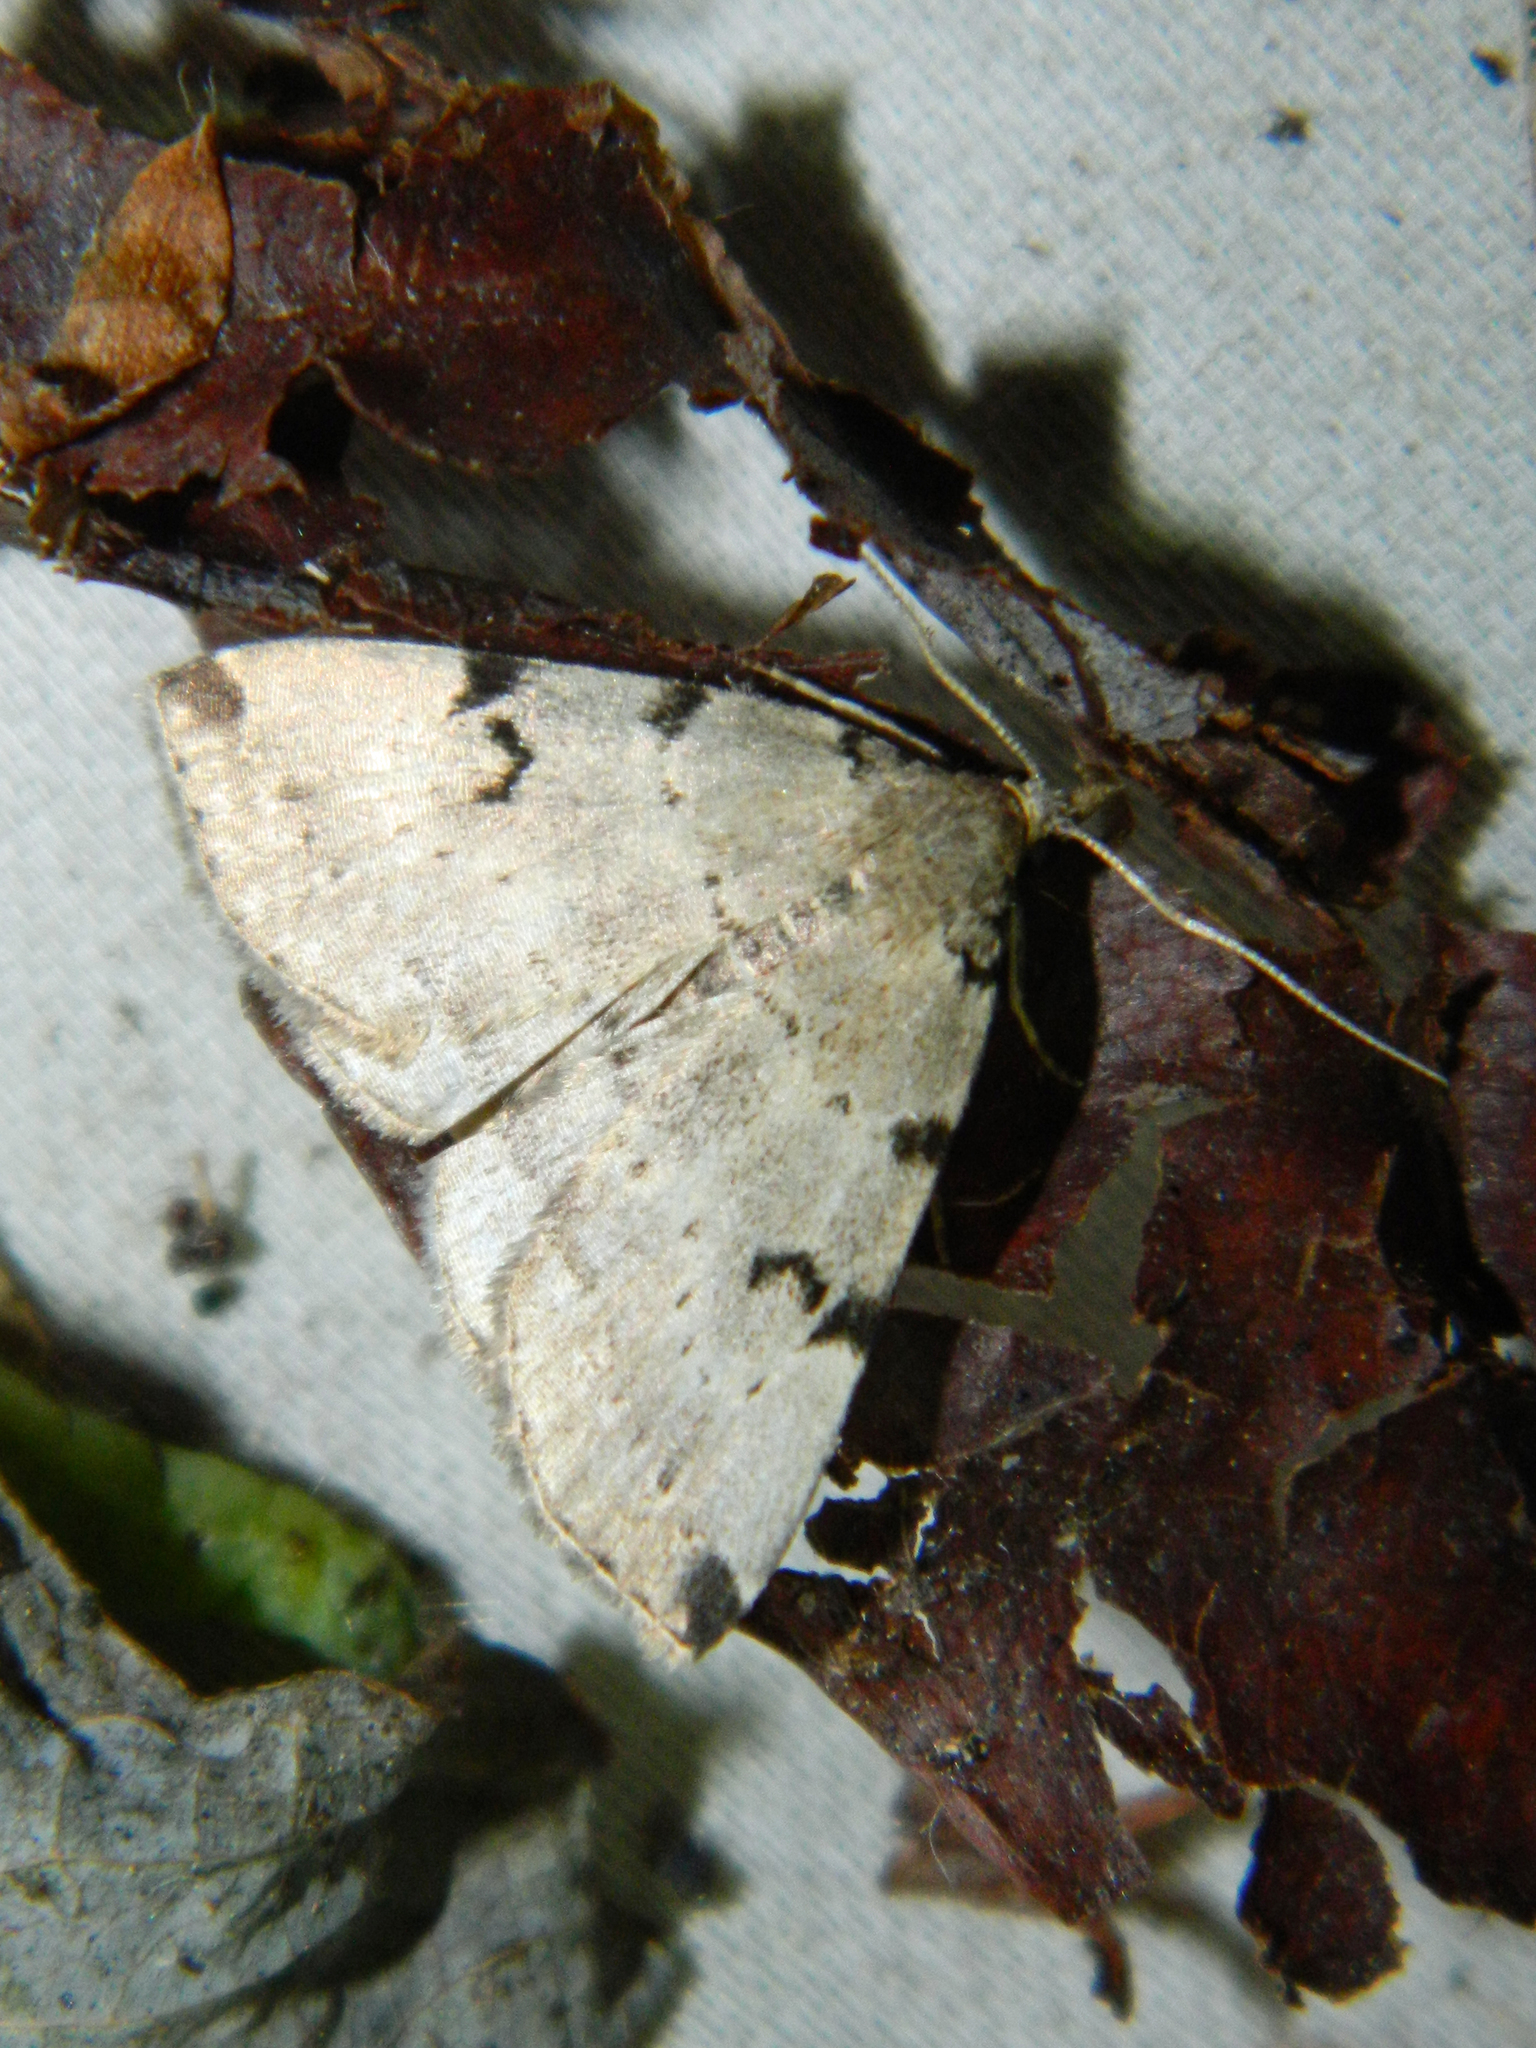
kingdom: Animalia
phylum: Arthropoda
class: Insecta
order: Lepidoptera
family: Erebidae
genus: Zanclognatha
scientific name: Zanclognatha lituralis
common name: Lettered fan-foot
